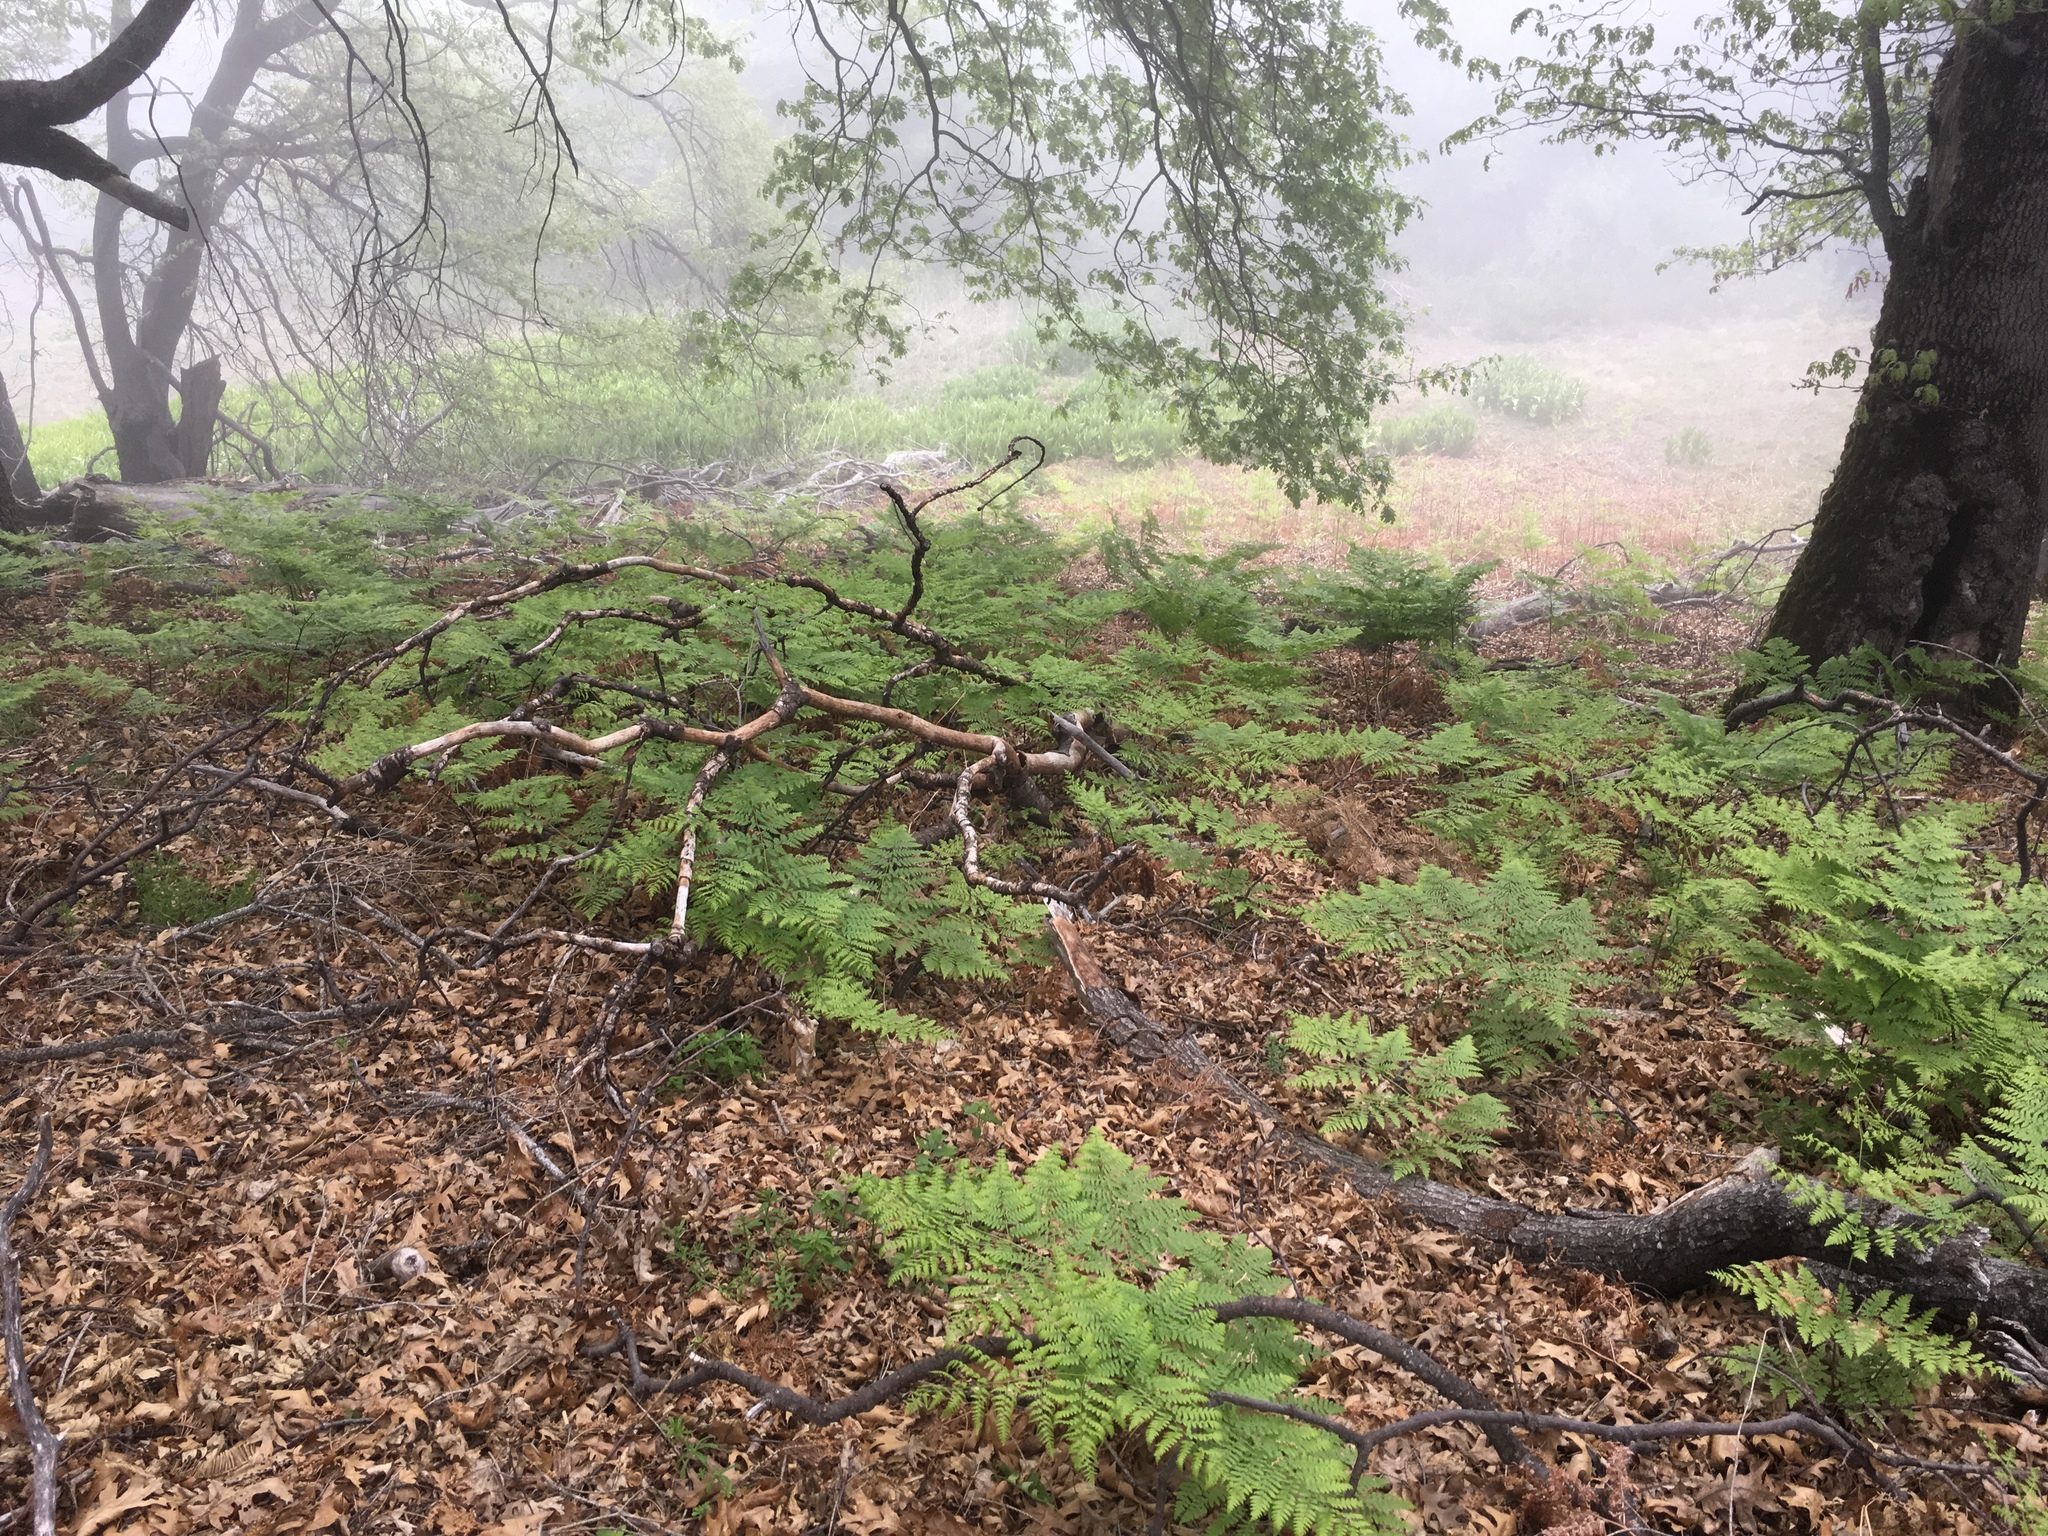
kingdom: Plantae
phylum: Tracheophyta
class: Polypodiopsida
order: Polypodiales
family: Dennstaedtiaceae
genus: Pteridium
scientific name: Pteridium aquilinum
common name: Bracken
